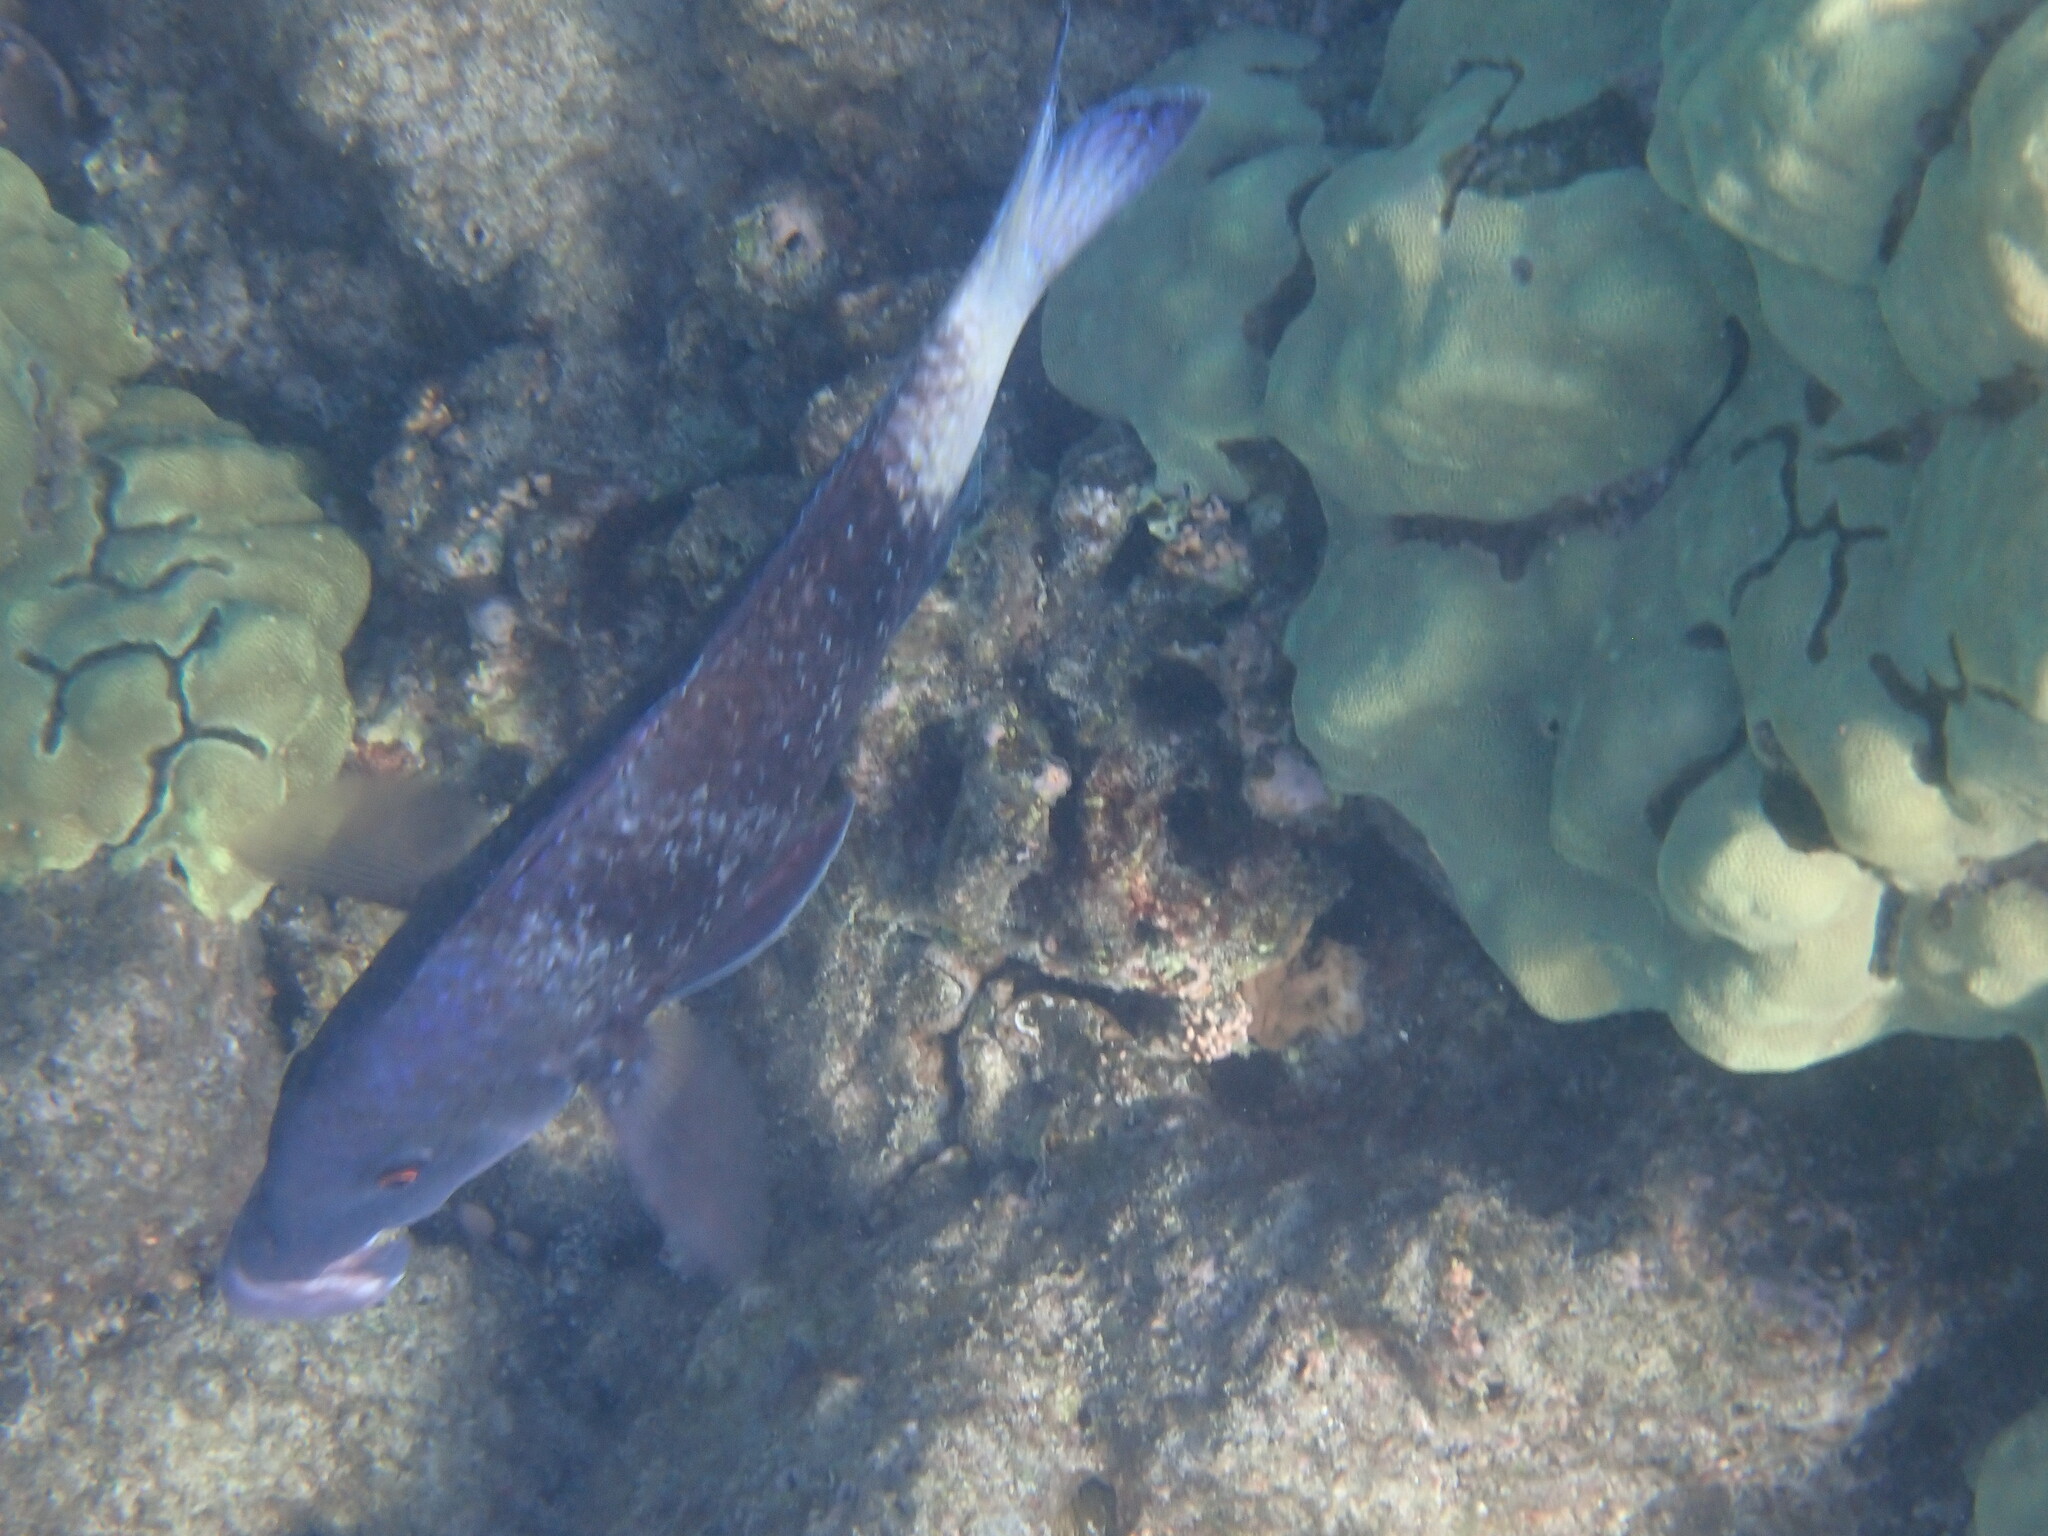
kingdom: Animalia
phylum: Chordata
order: Perciformes
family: Mullidae
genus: Parupeneus
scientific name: Parupeneus insularis
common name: Doublebar goatfish
